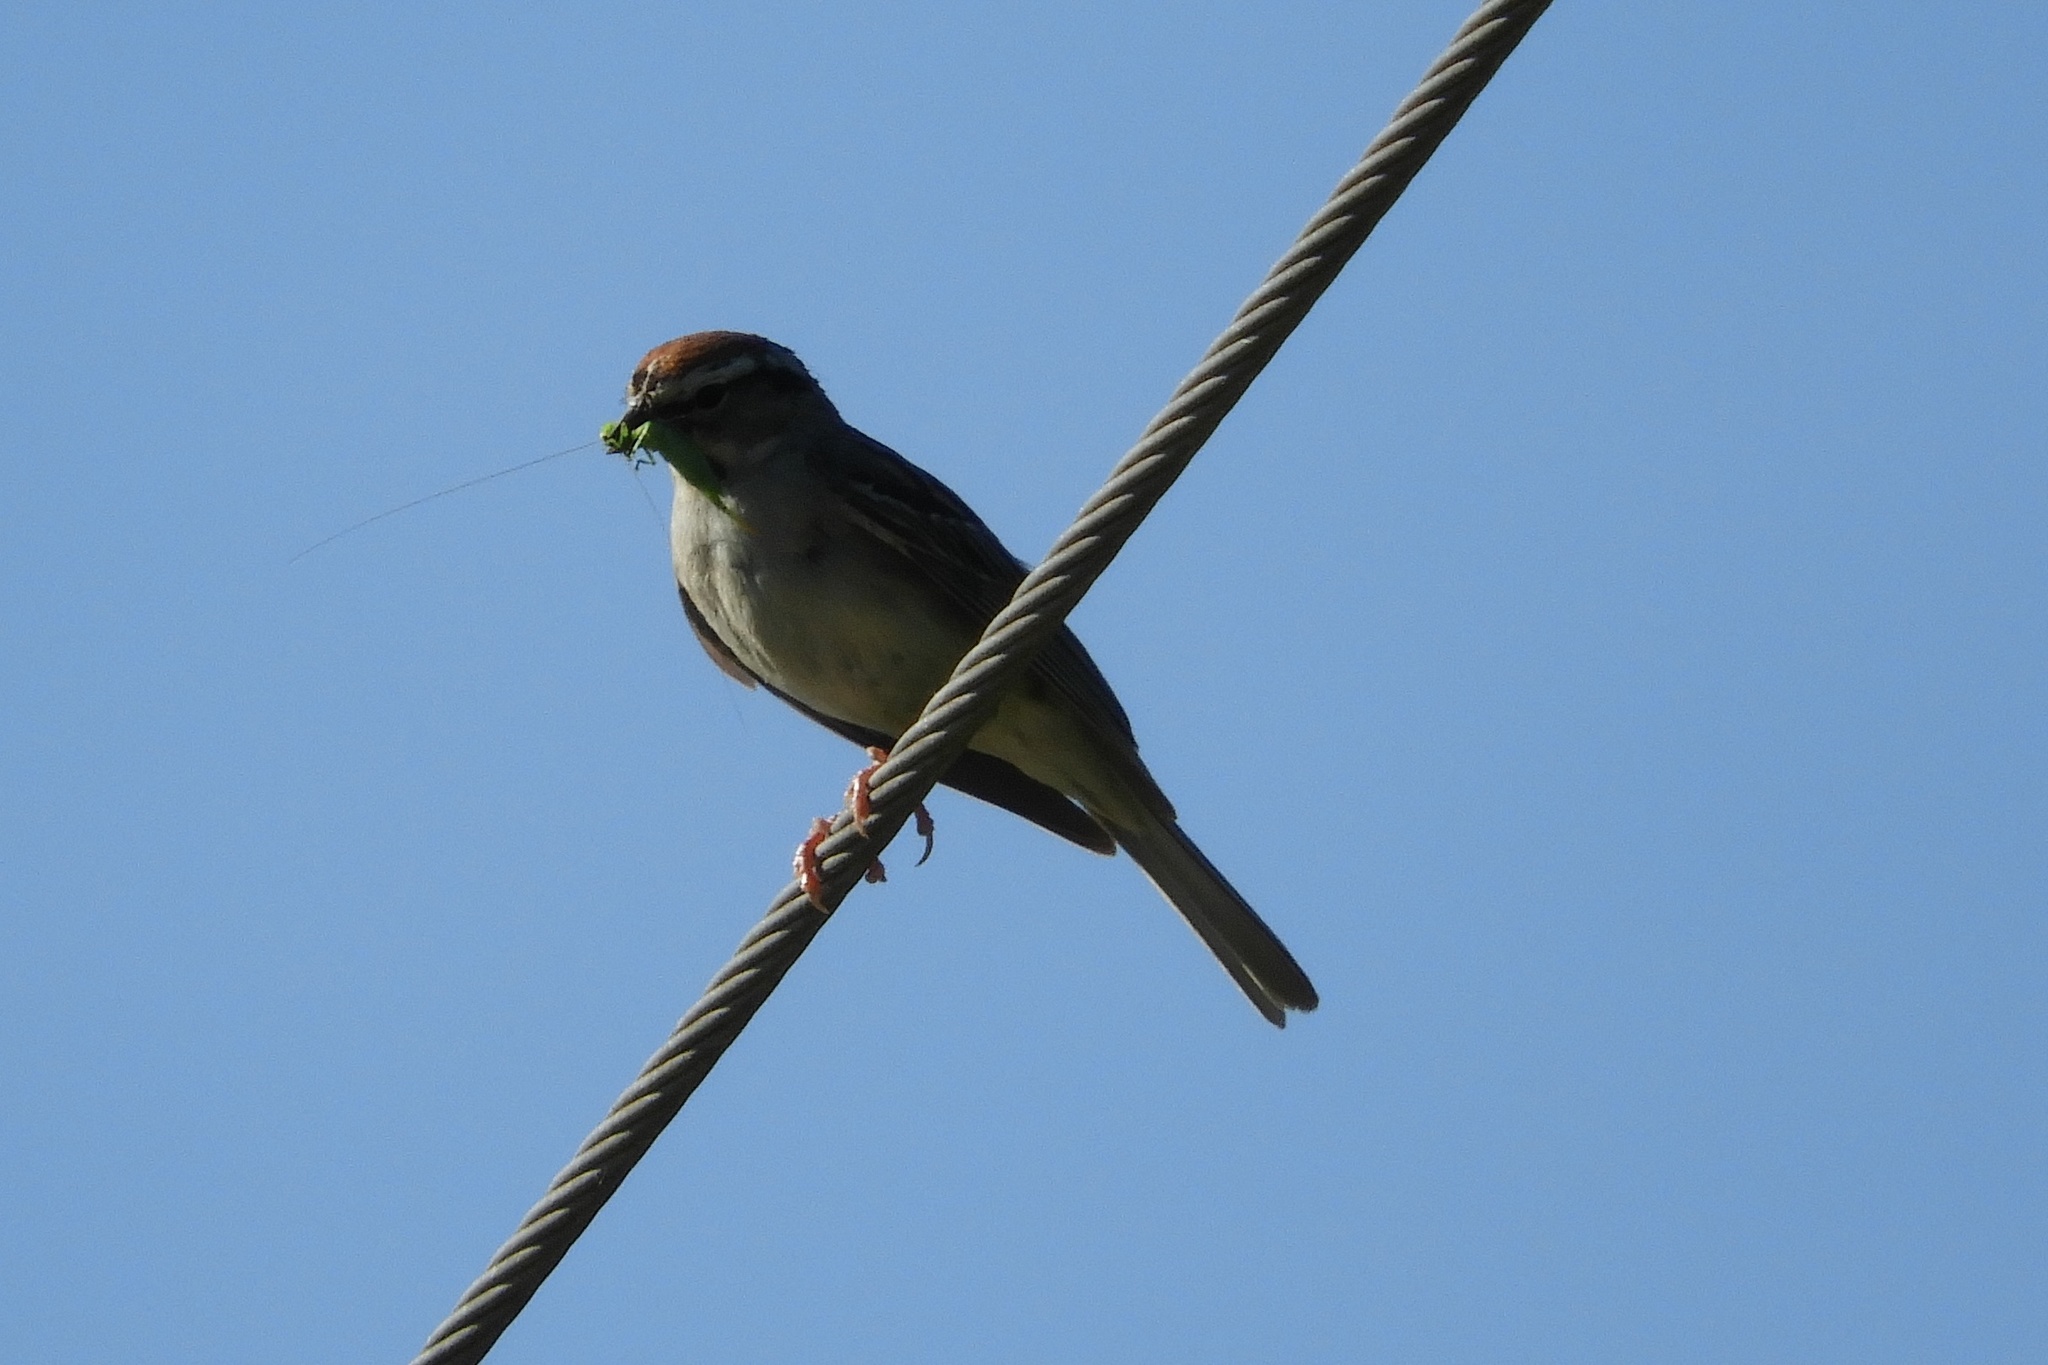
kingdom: Animalia
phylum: Chordata
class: Aves
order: Passeriformes
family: Passerellidae
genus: Spizella
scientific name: Spizella passerina
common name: Chipping sparrow
